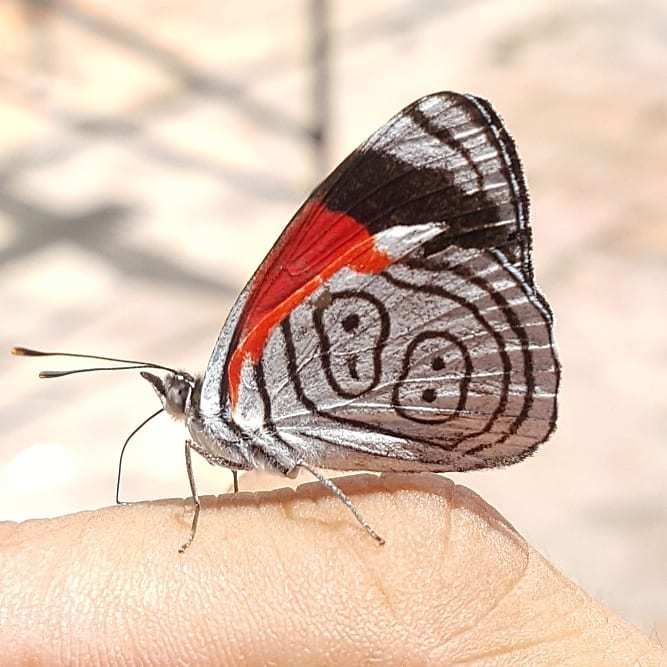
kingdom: Animalia
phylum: Arthropoda
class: Insecta
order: Lepidoptera
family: Nymphalidae
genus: Diaethria
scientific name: Diaethria anna
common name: Anna’s eighty-eight
